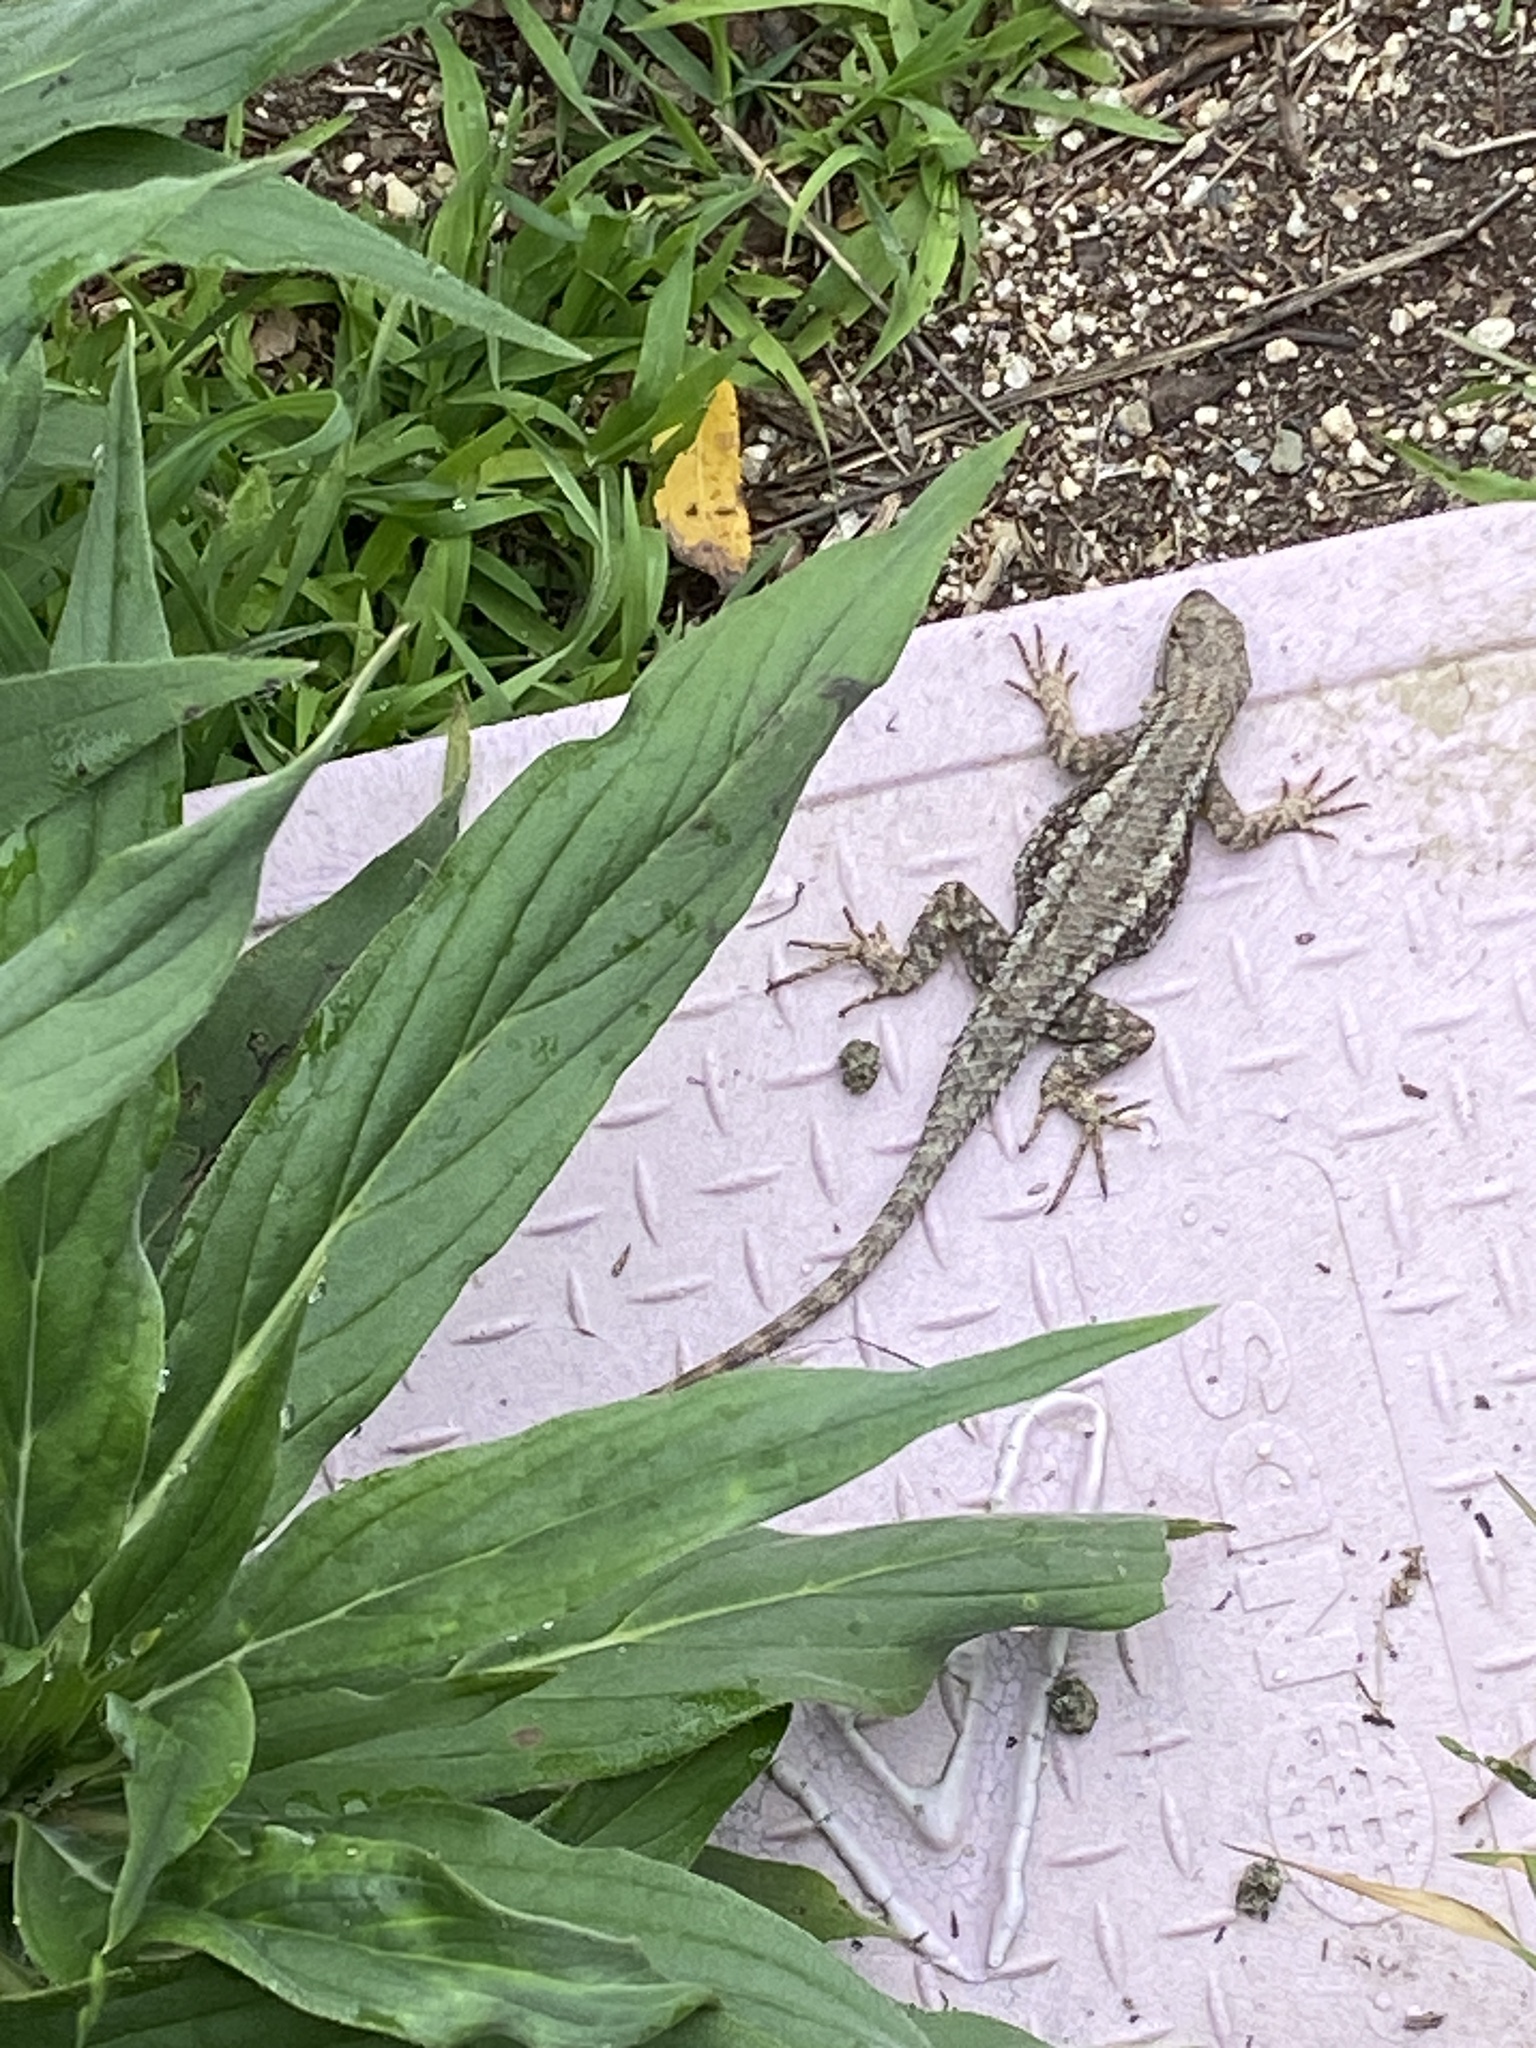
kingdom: Animalia
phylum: Chordata
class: Squamata
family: Phrynosomatidae
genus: Sceloporus
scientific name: Sceloporus occidentalis
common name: Western fence lizard
